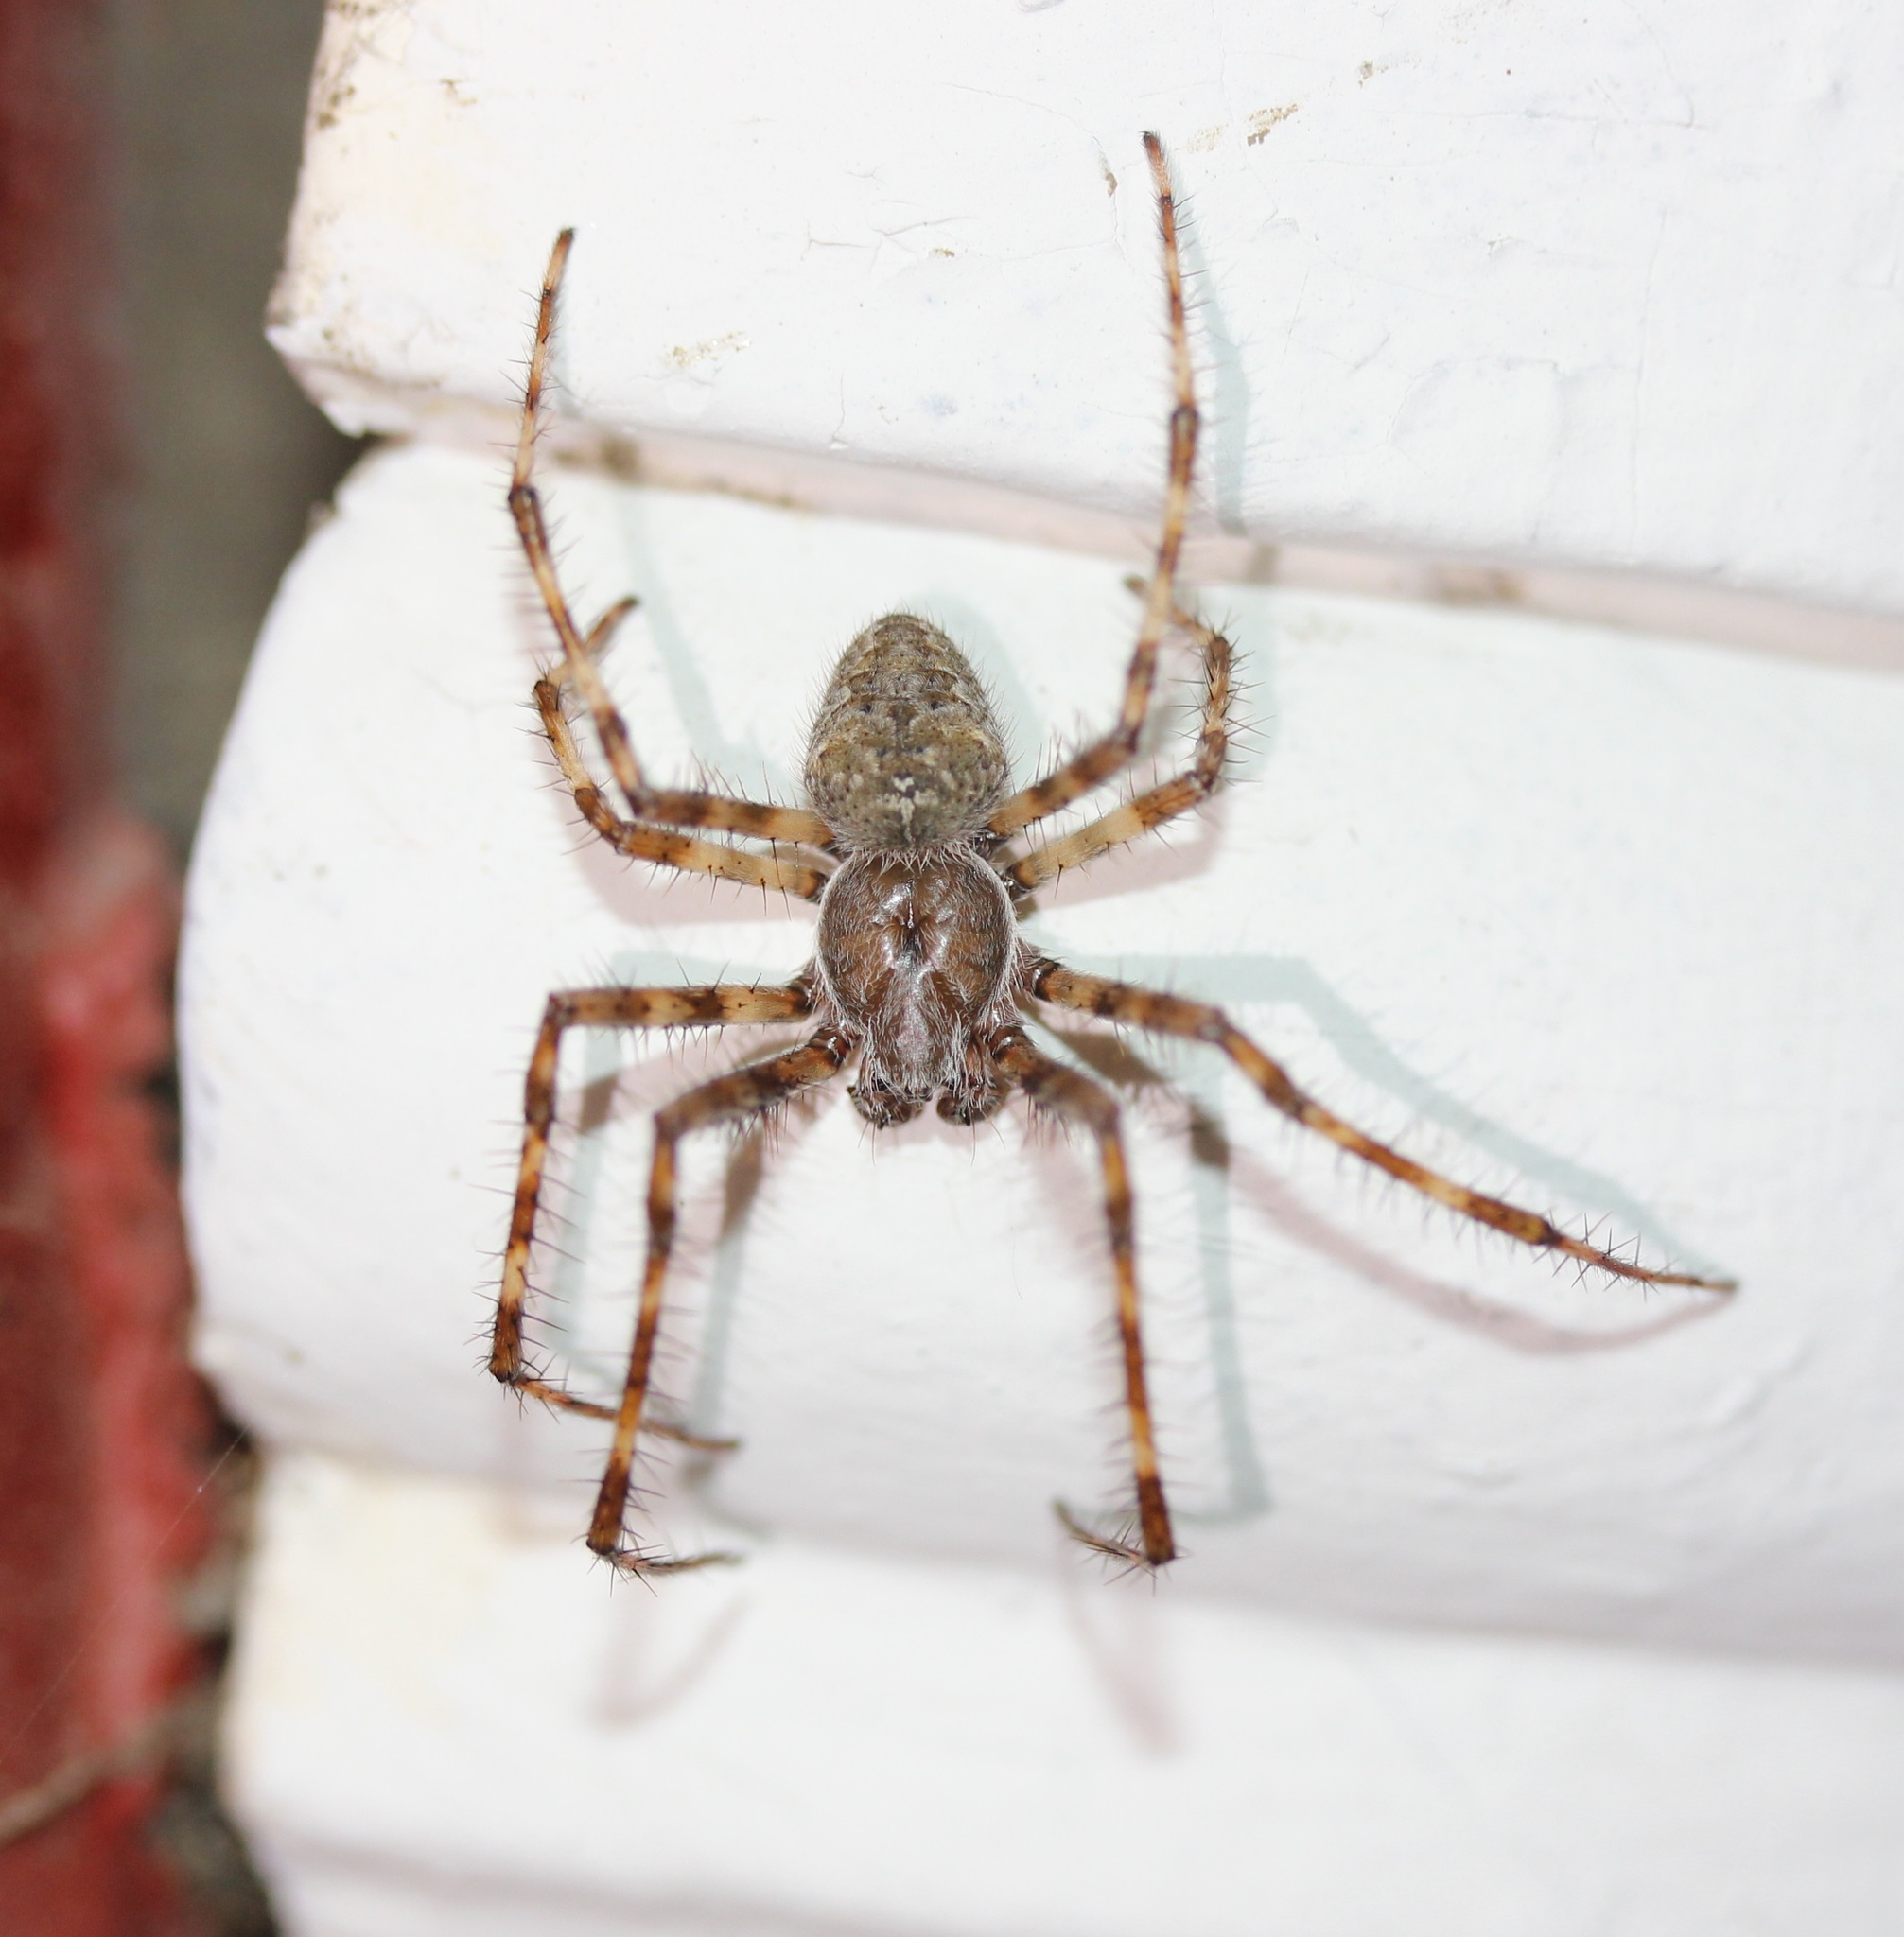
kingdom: Animalia
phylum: Arthropoda
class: Arachnida
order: Araneae
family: Araneidae
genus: Araneus
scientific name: Araneus cavaticus
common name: Barn orbweaver
